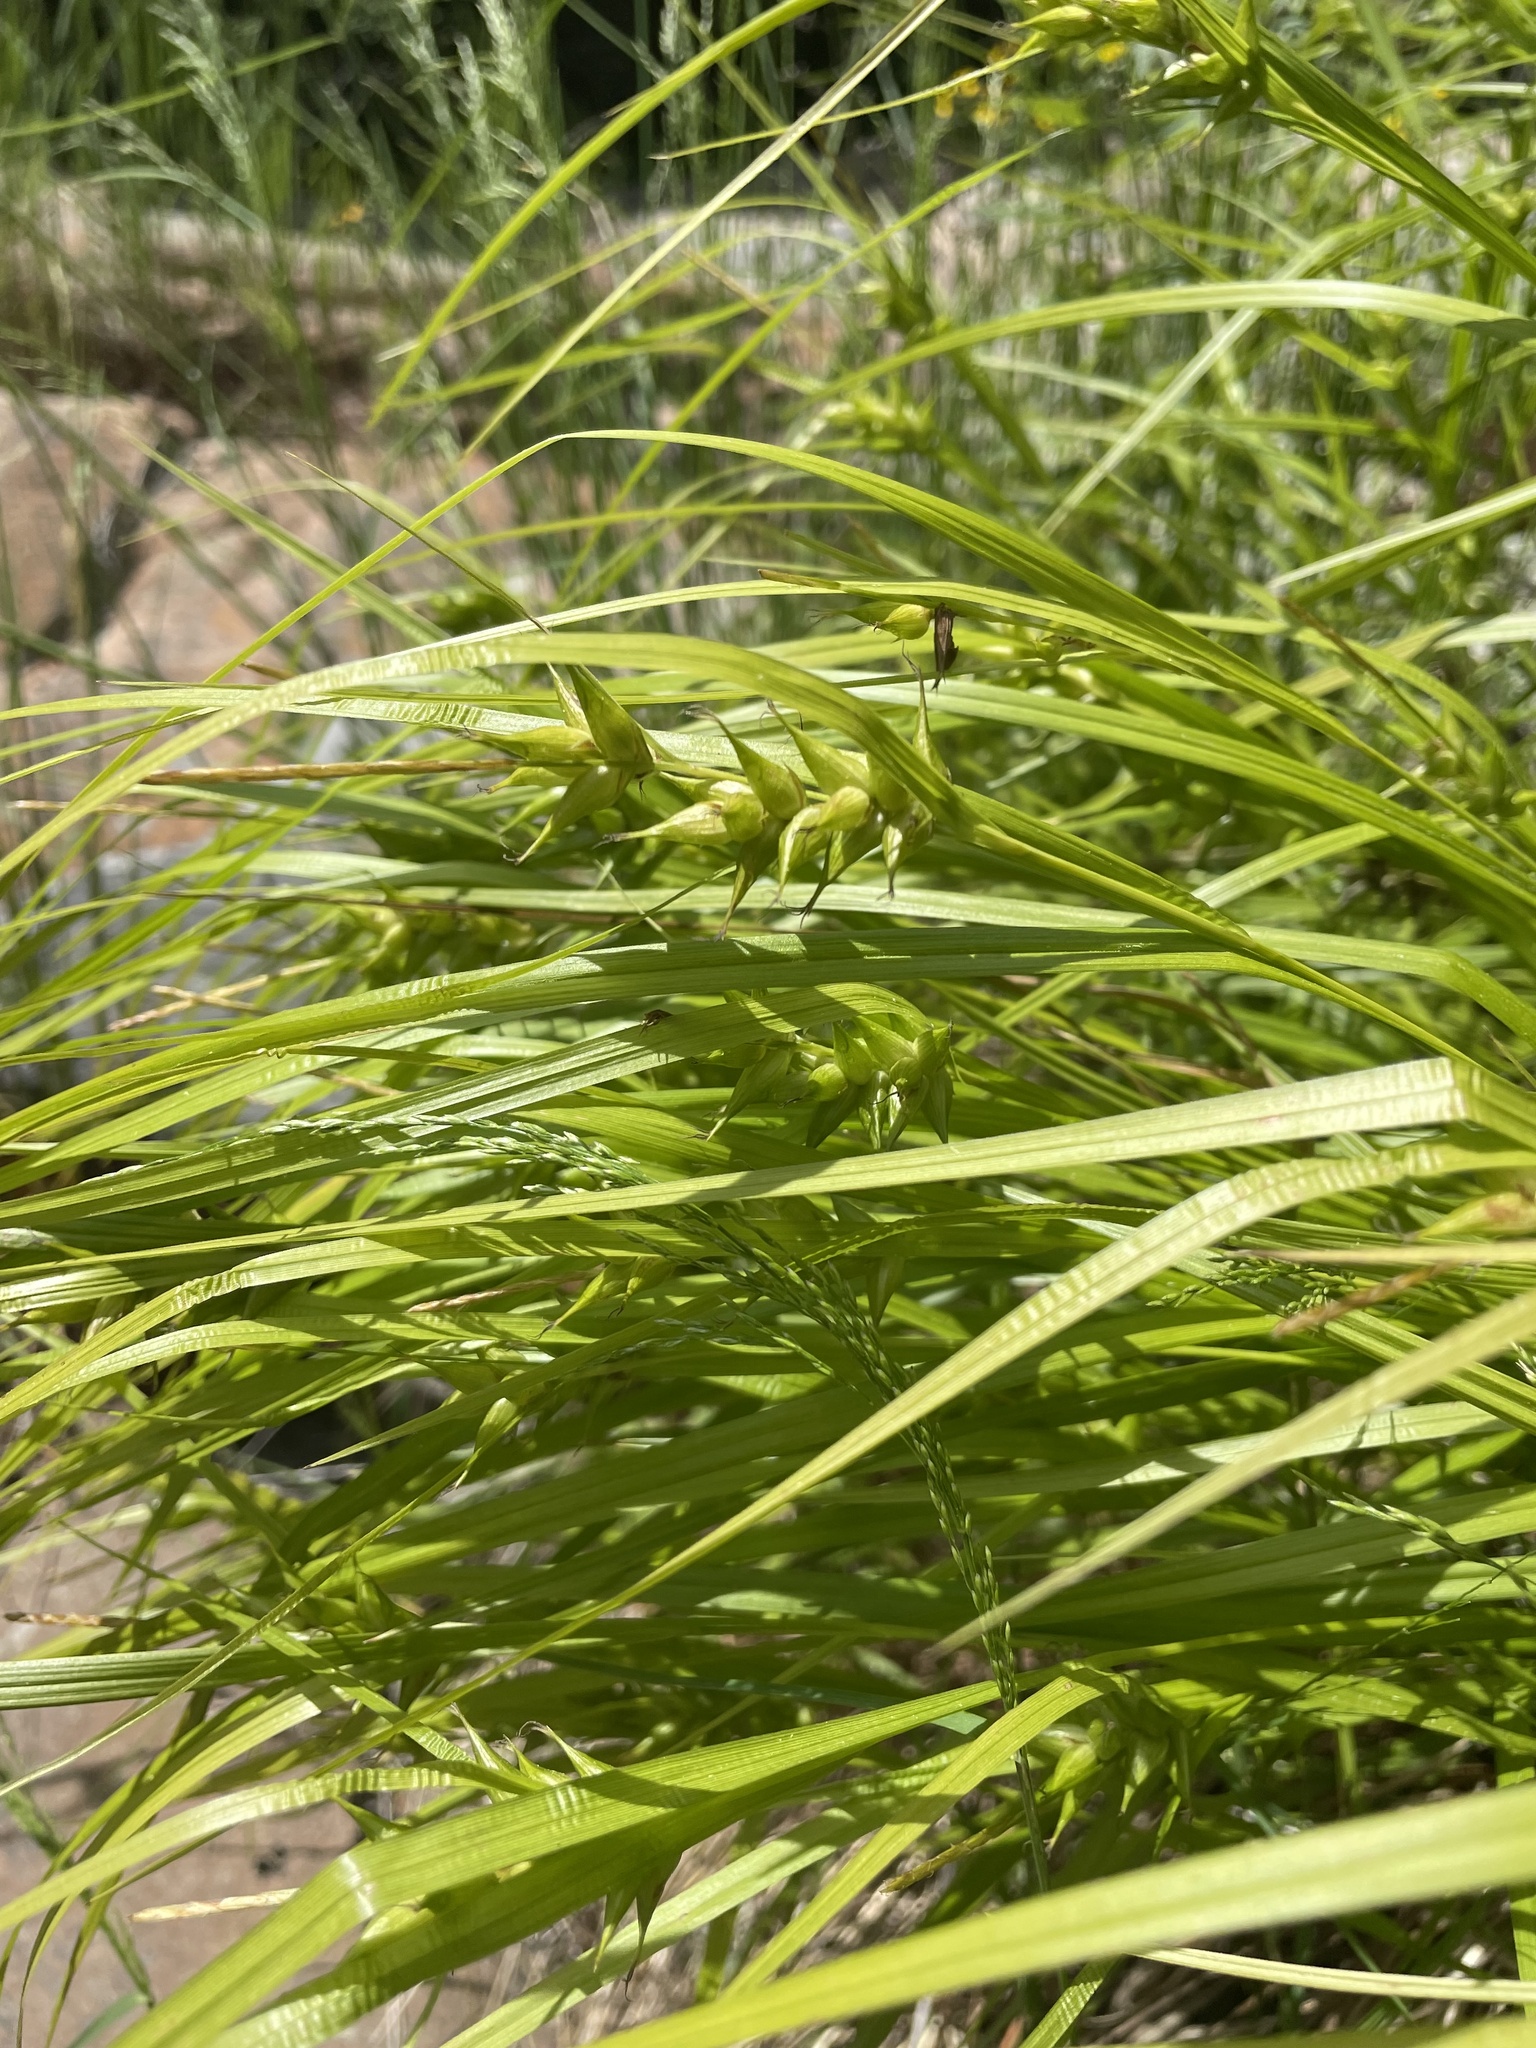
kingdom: Plantae
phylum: Tracheophyta
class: Liliopsida
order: Poales
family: Cyperaceae
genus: Carex
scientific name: Carex intumescens
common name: Greater bladder sedge
